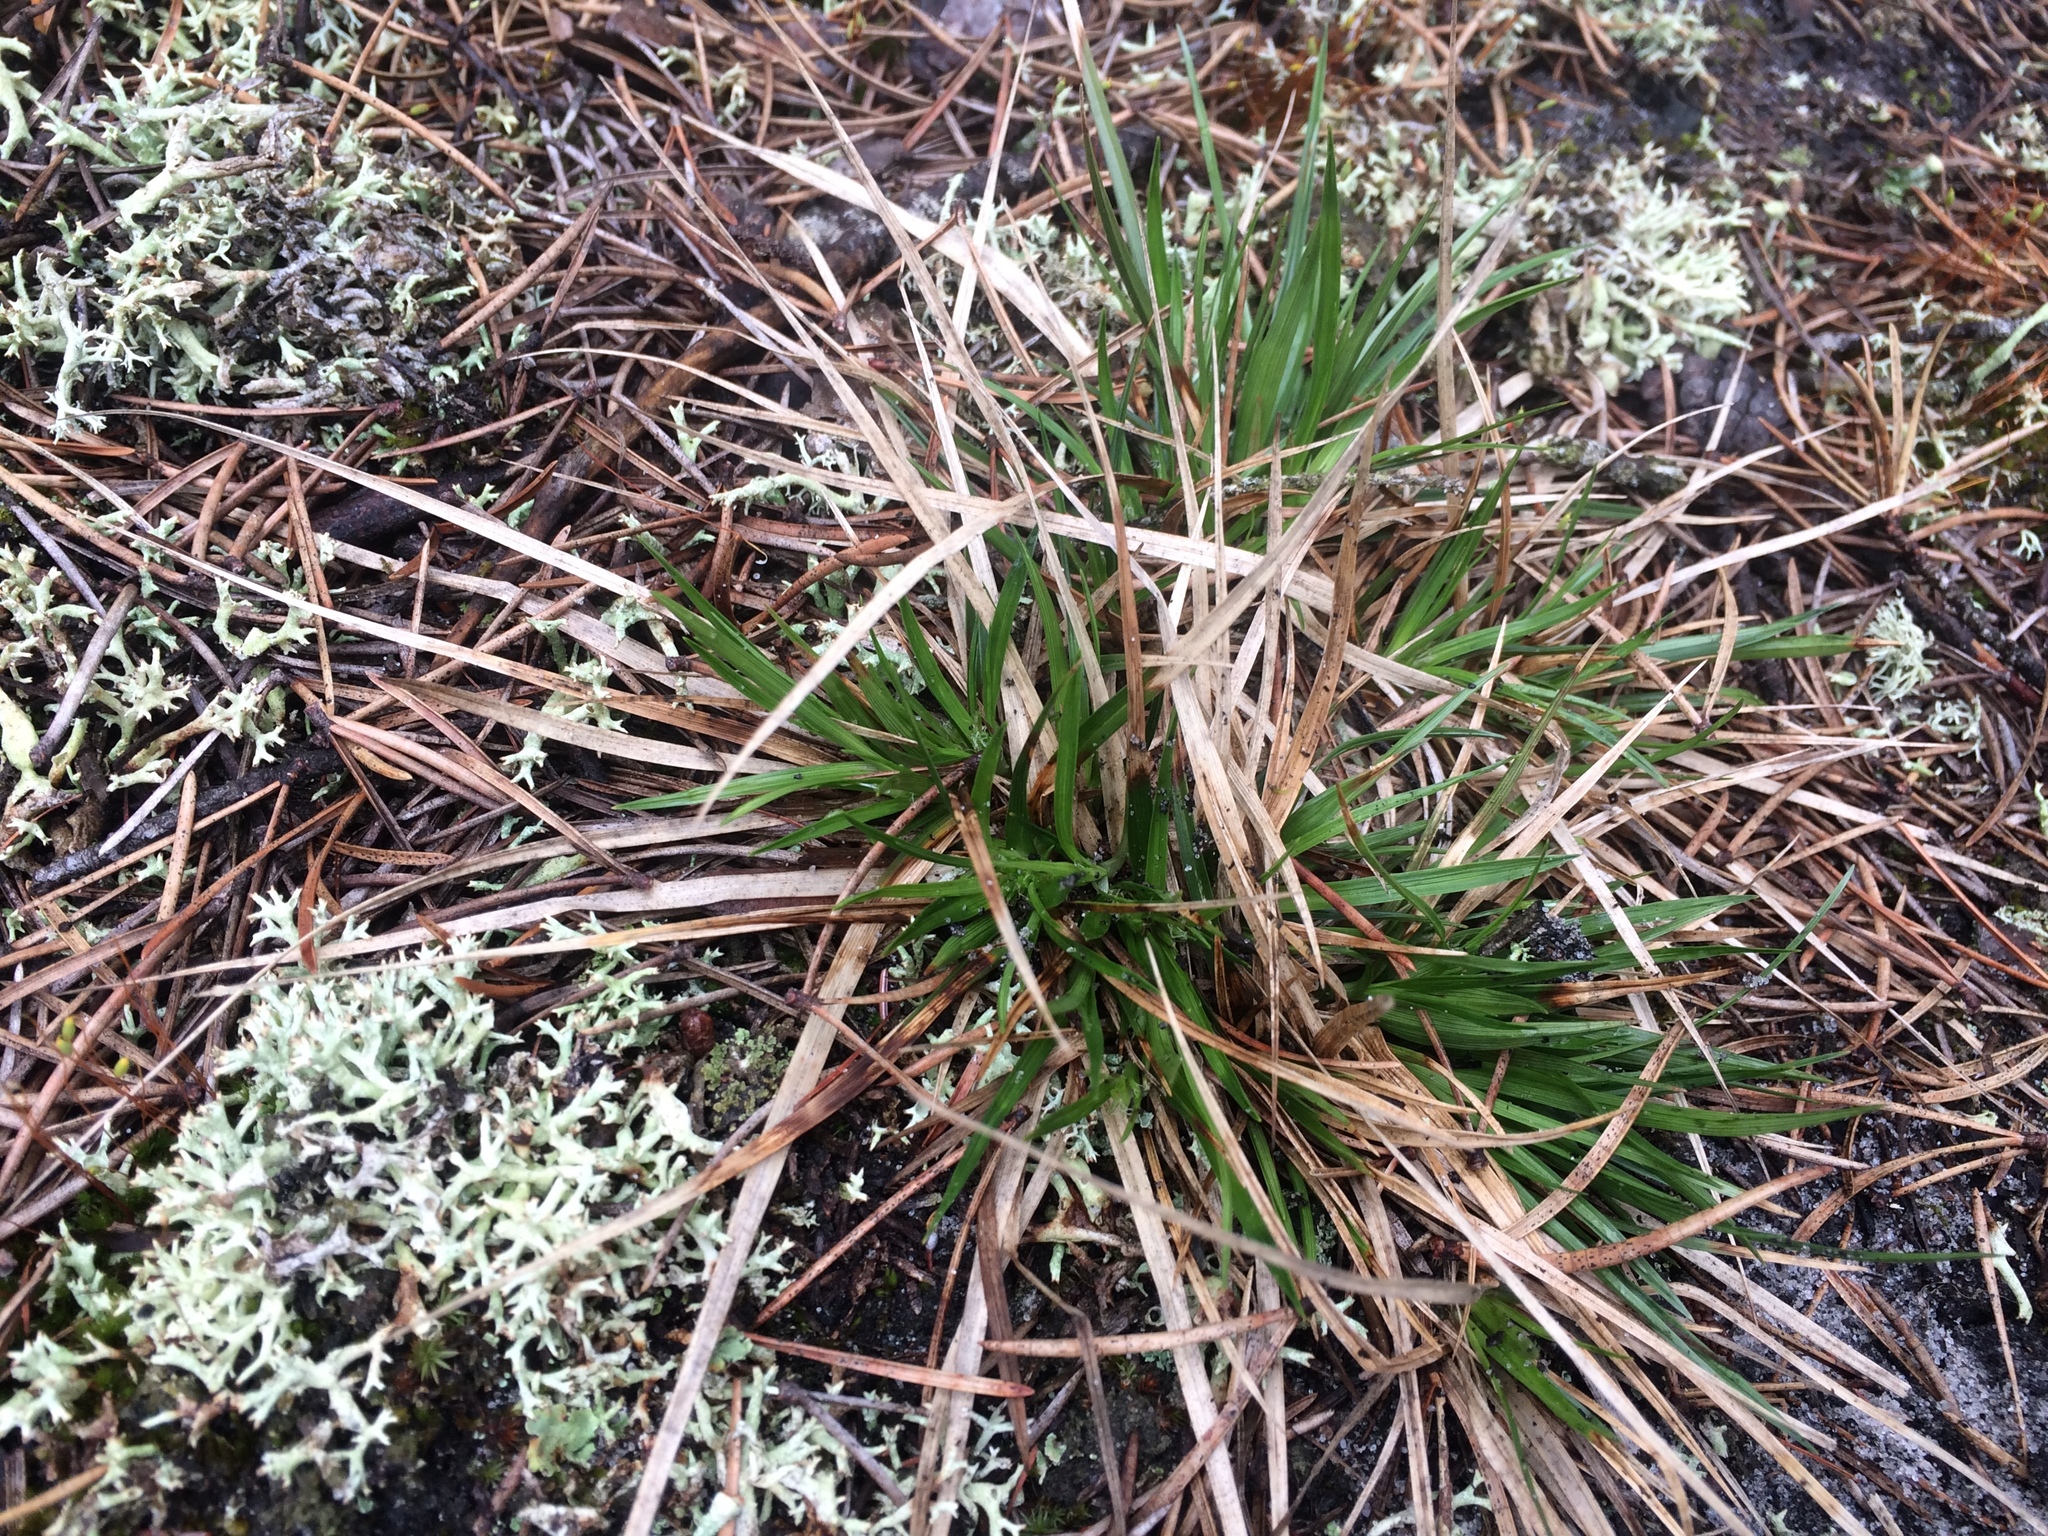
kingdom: Plantae
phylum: Tracheophyta
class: Liliopsida
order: Poales
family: Cyperaceae
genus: Carex
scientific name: Carex tonsa
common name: Bald sedge
